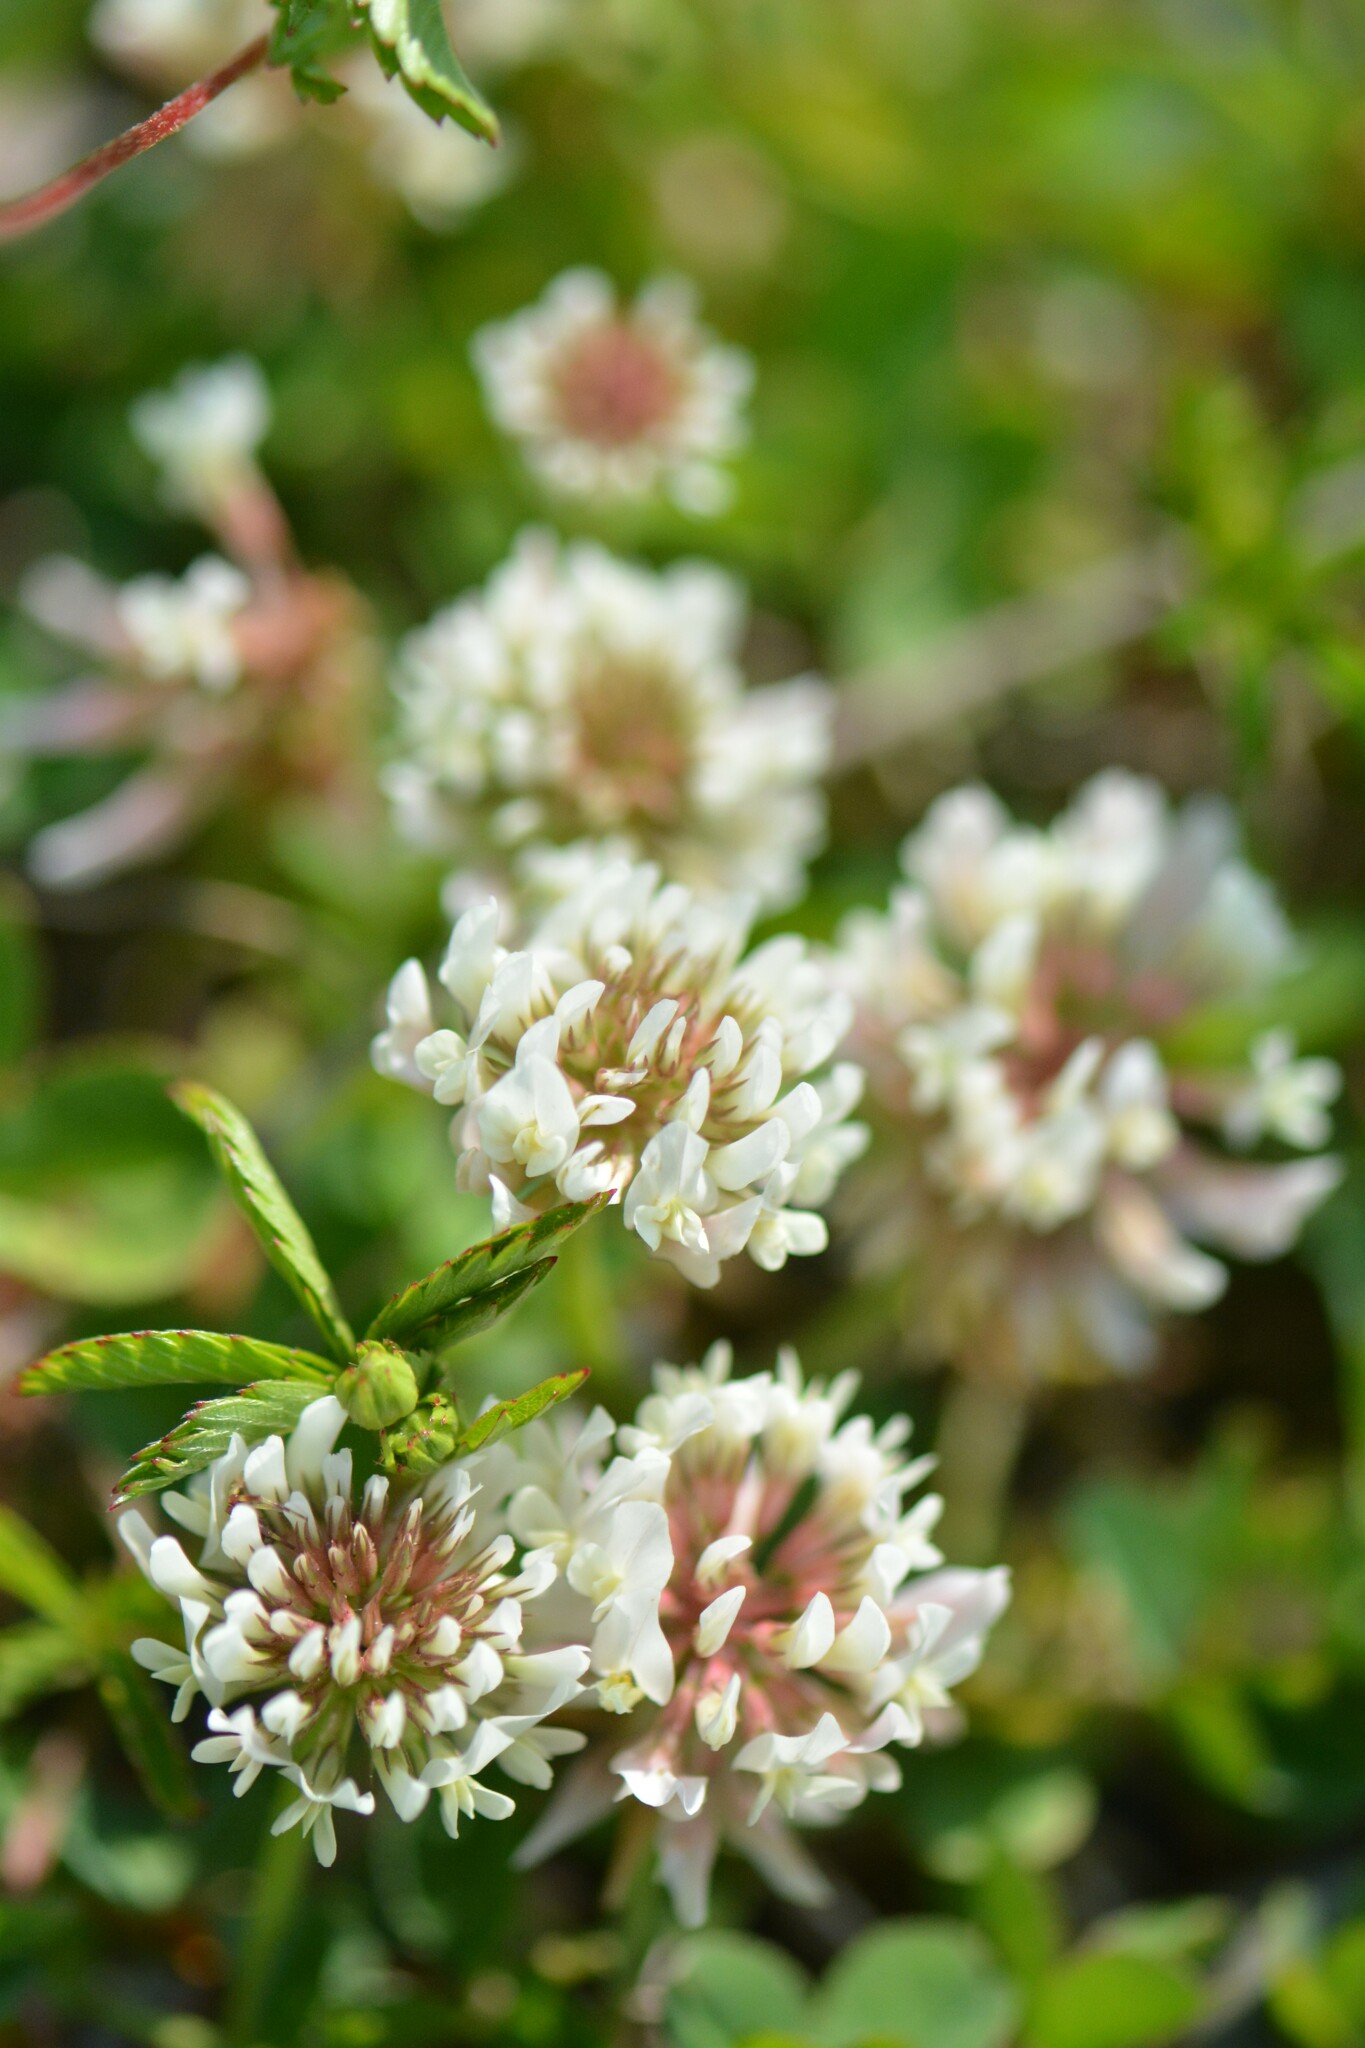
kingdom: Plantae
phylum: Tracheophyta
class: Magnoliopsida
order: Fabales
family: Fabaceae
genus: Trifolium
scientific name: Trifolium repens
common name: White clover
